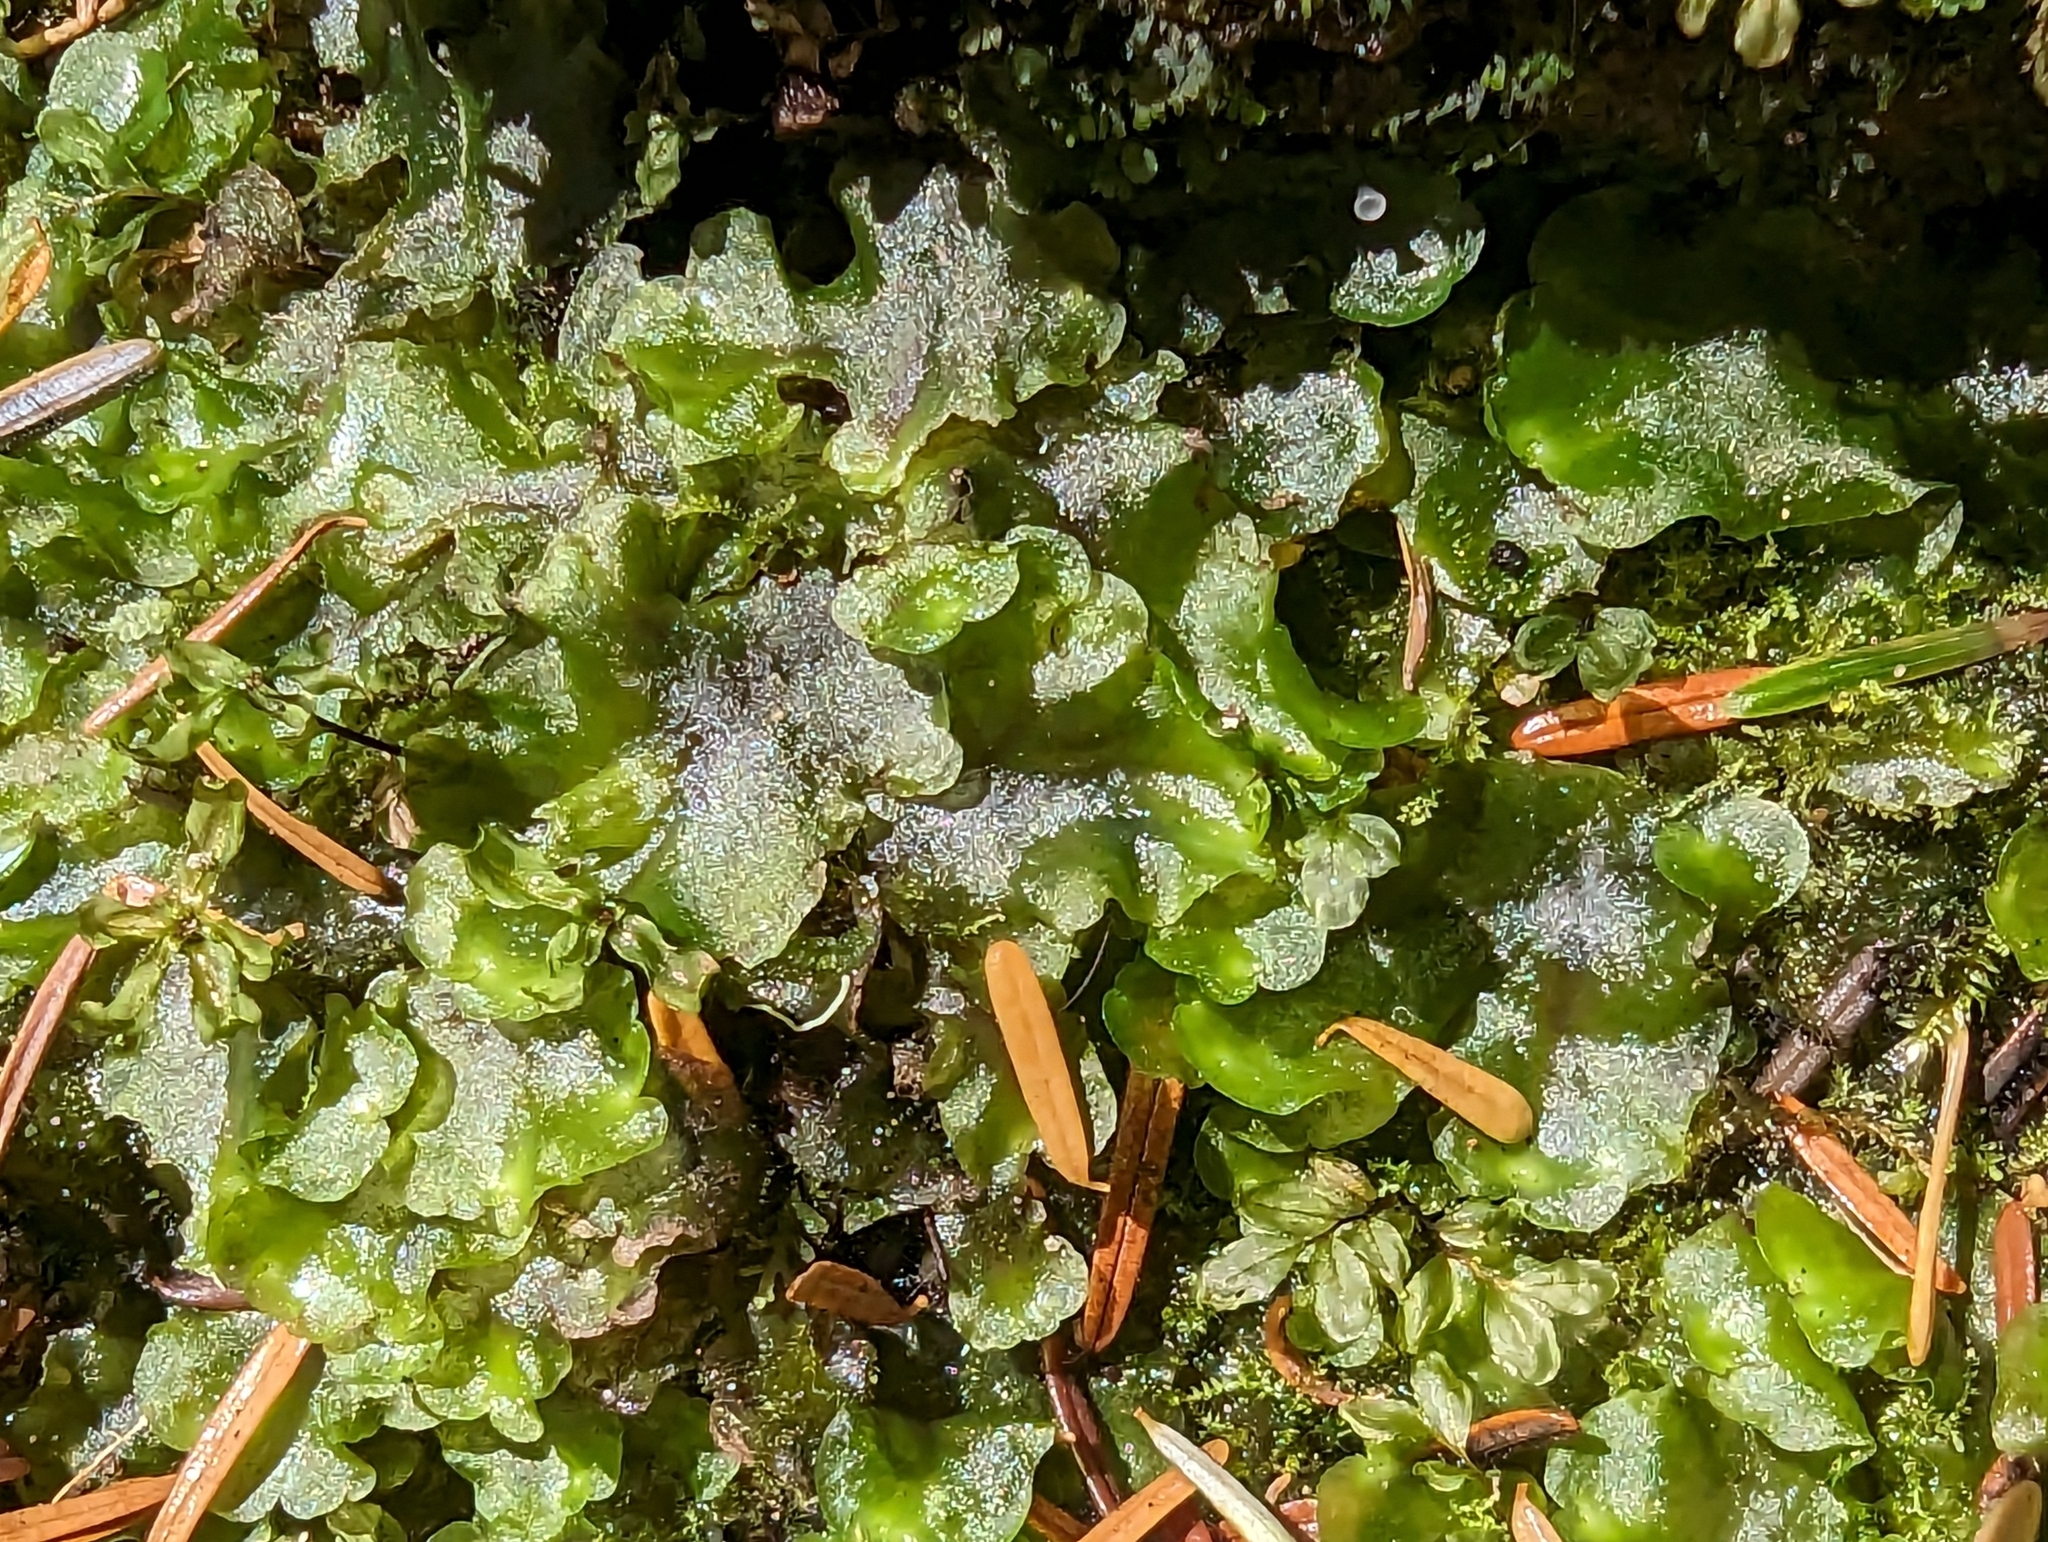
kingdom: Plantae
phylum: Marchantiophyta
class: Jungermanniopsida
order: Pelliales
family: Pelliaceae
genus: Pellia
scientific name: Pellia neesiana
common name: Nees  pellia
